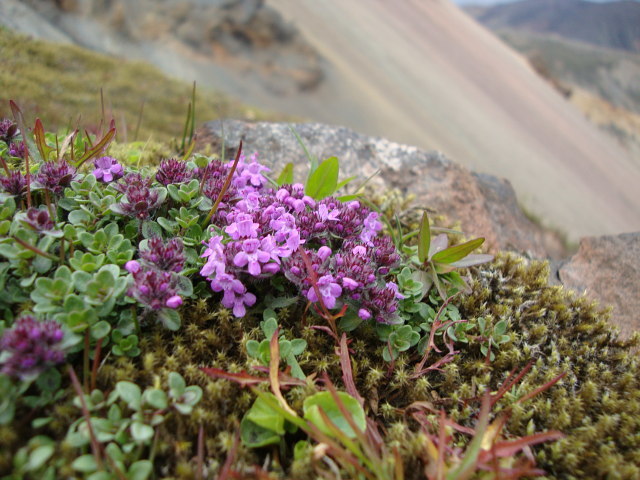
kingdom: Plantae
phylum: Tracheophyta
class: Magnoliopsida
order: Lamiales
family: Lamiaceae
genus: Thymus
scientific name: Thymus praecox
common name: Wild thyme
